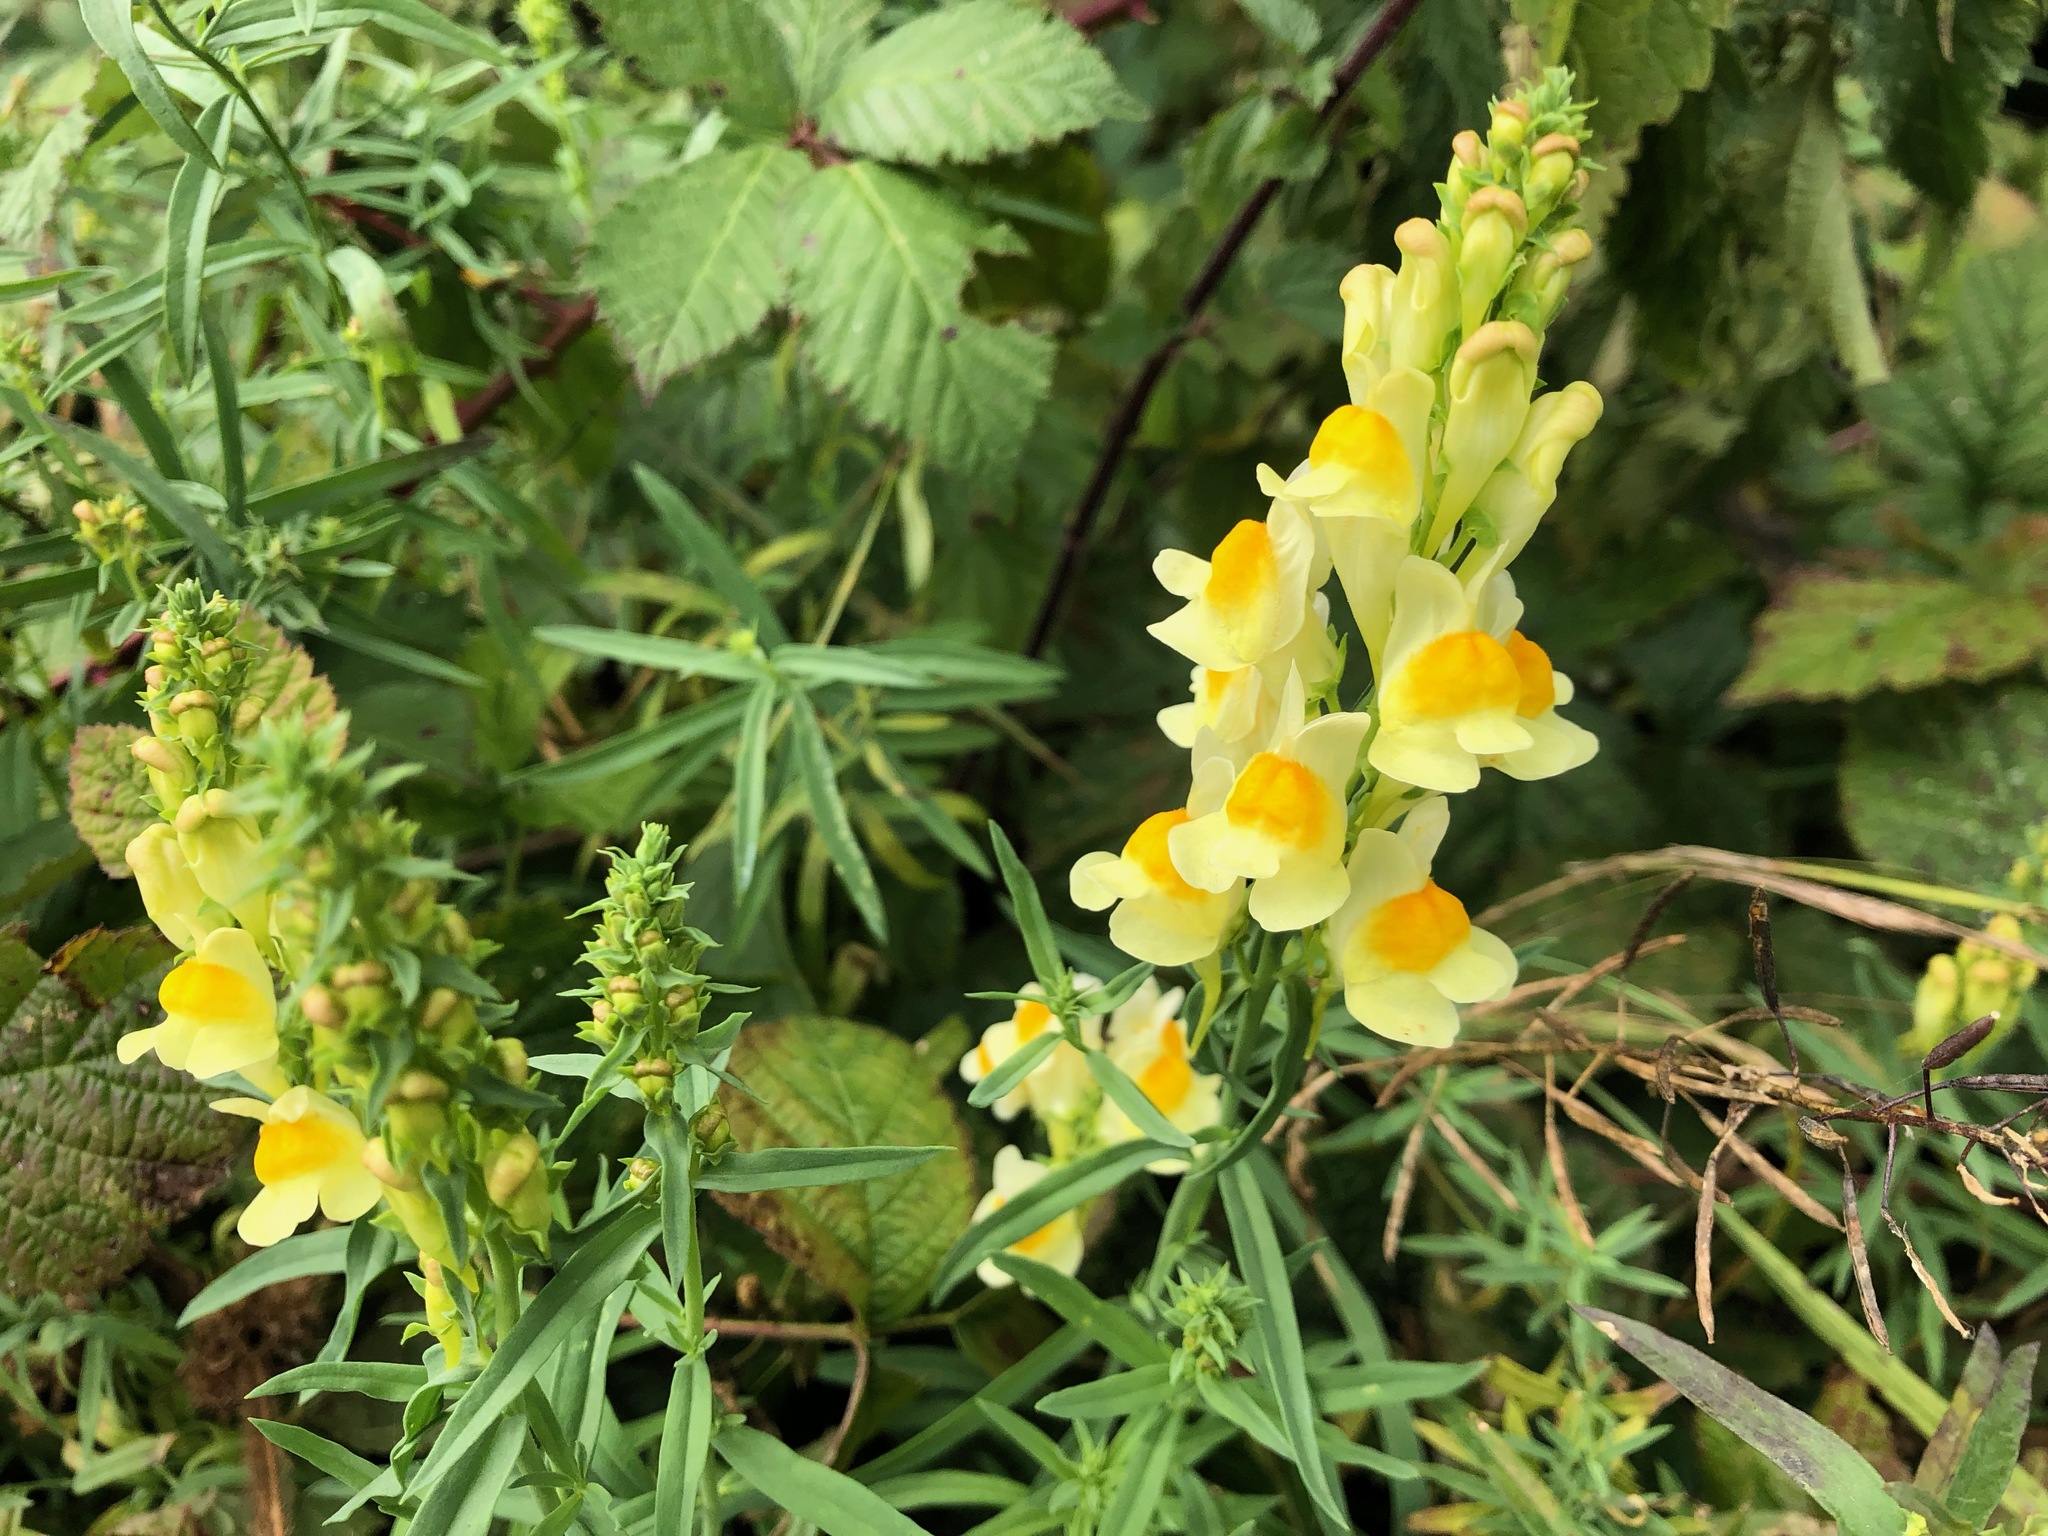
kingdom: Plantae
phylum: Tracheophyta
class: Magnoliopsida
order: Lamiales
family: Plantaginaceae
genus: Linaria
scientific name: Linaria vulgaris
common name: Butter and eggs
